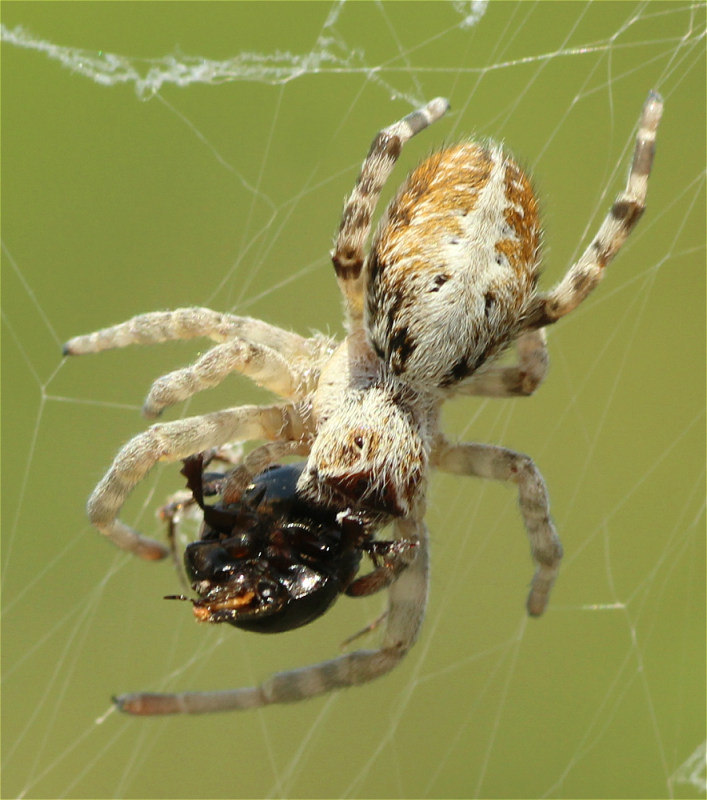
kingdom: Animalia
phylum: Arthropoda
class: Arachnida
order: Araneae
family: Eresidae
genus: Stegodyphus
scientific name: Stegodyphus dumicola
